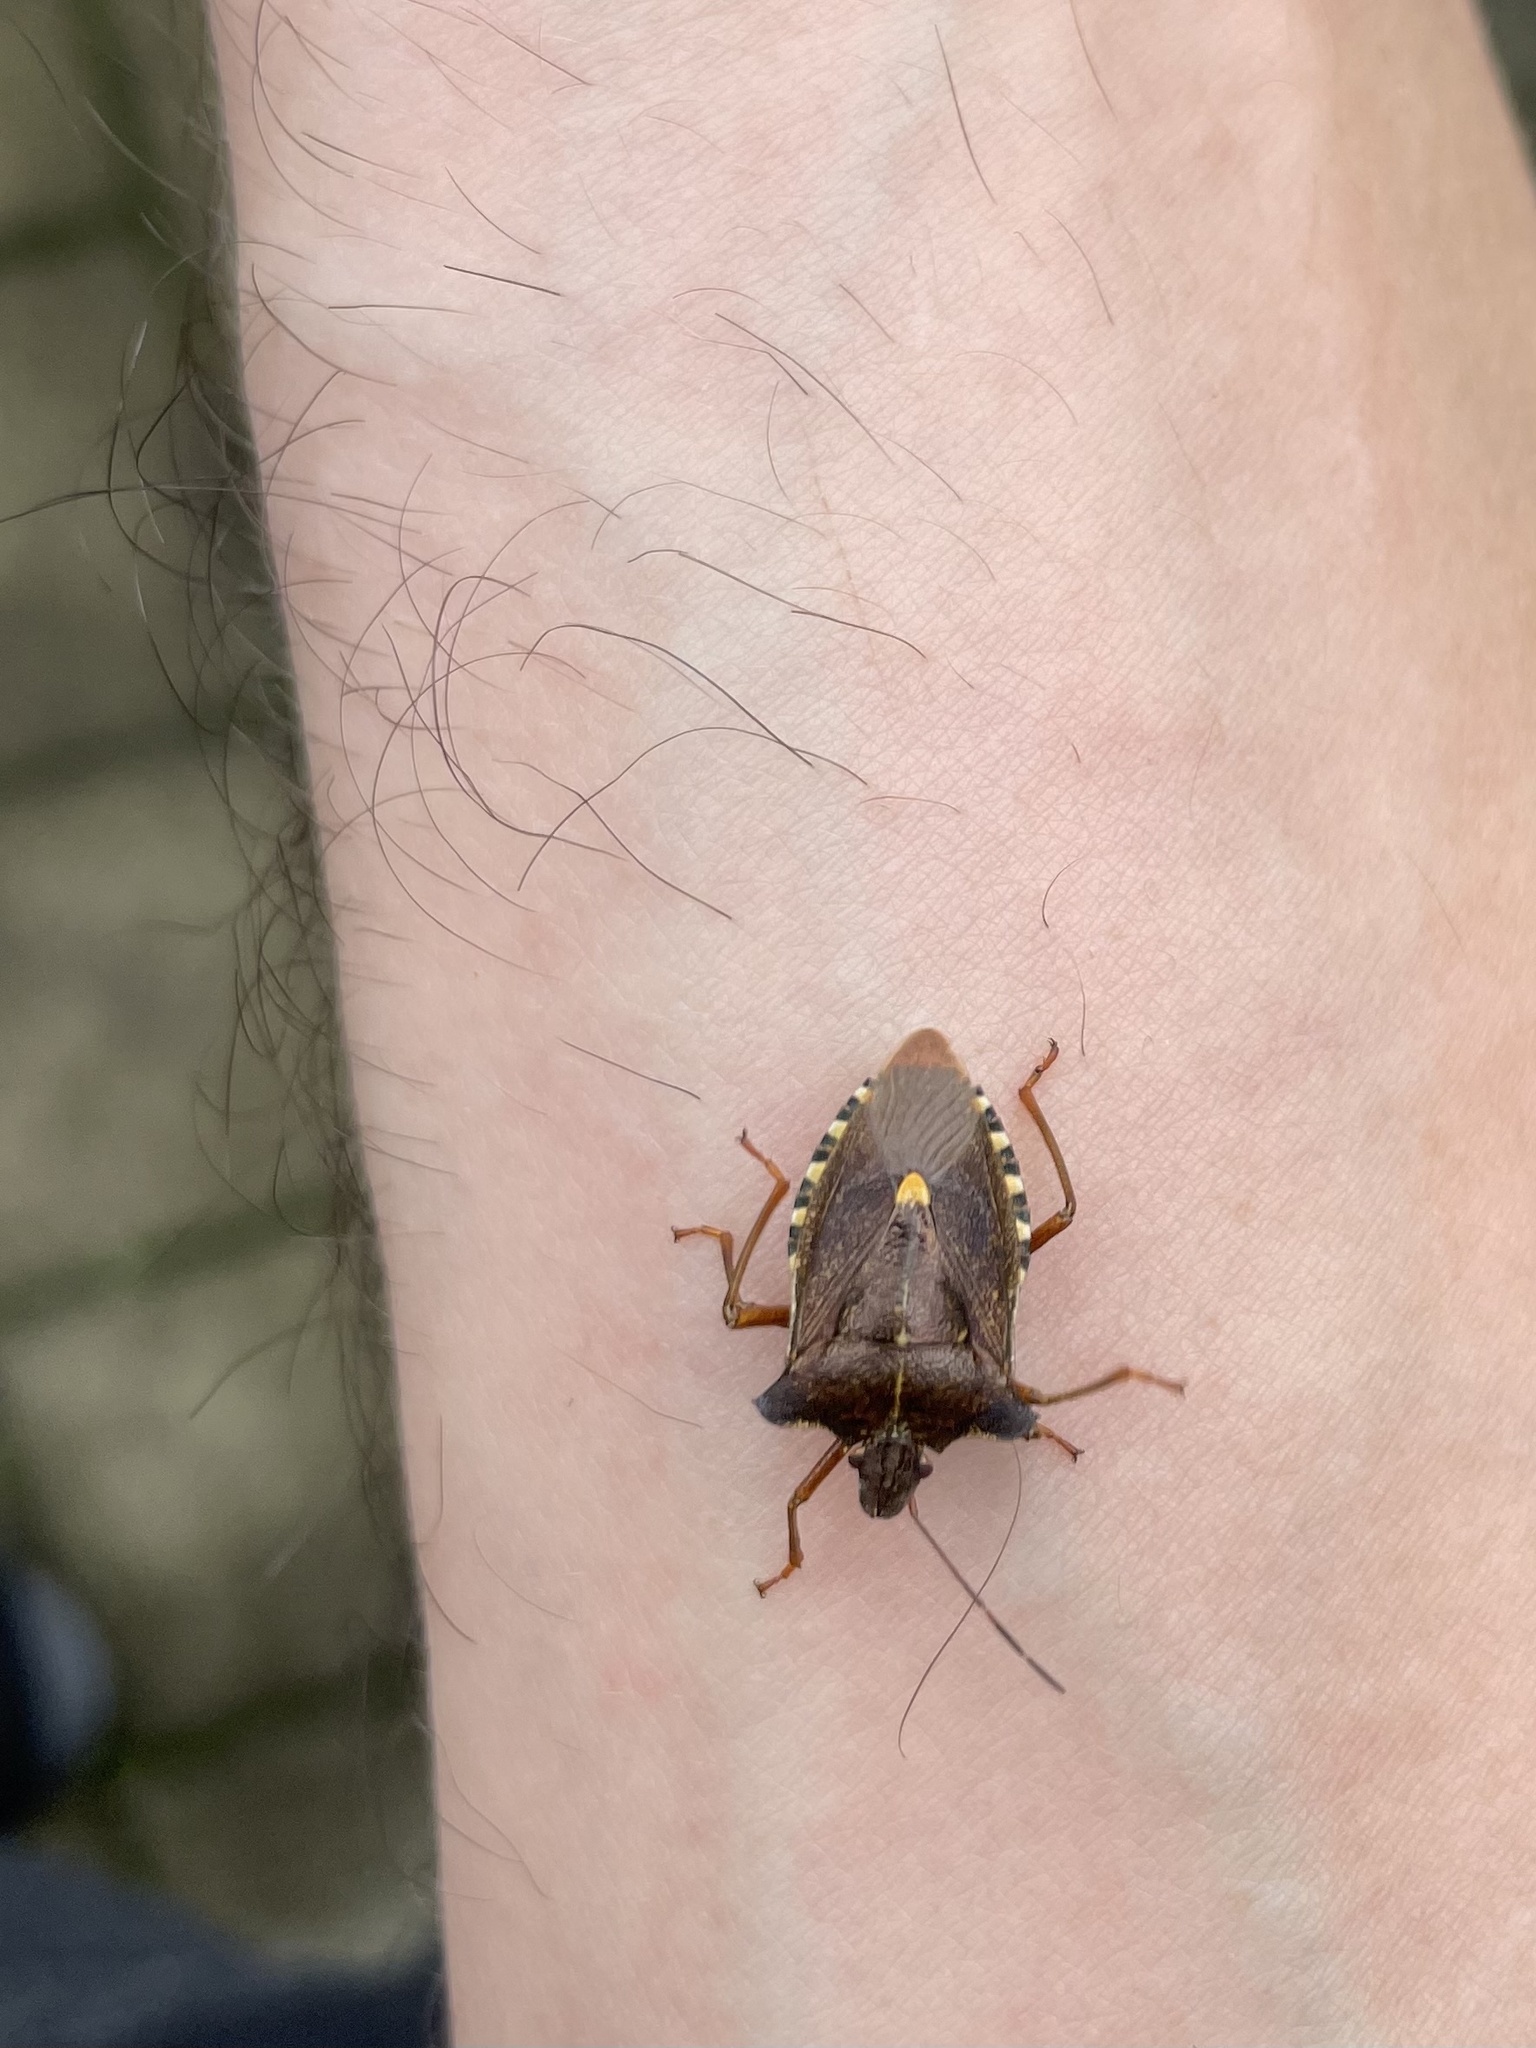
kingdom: Animalia
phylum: Arthropoda
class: Insecta
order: Hemiptera
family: Pentatomidae
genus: Pentatoma
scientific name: Pentatoma rufipes
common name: Forest bug
